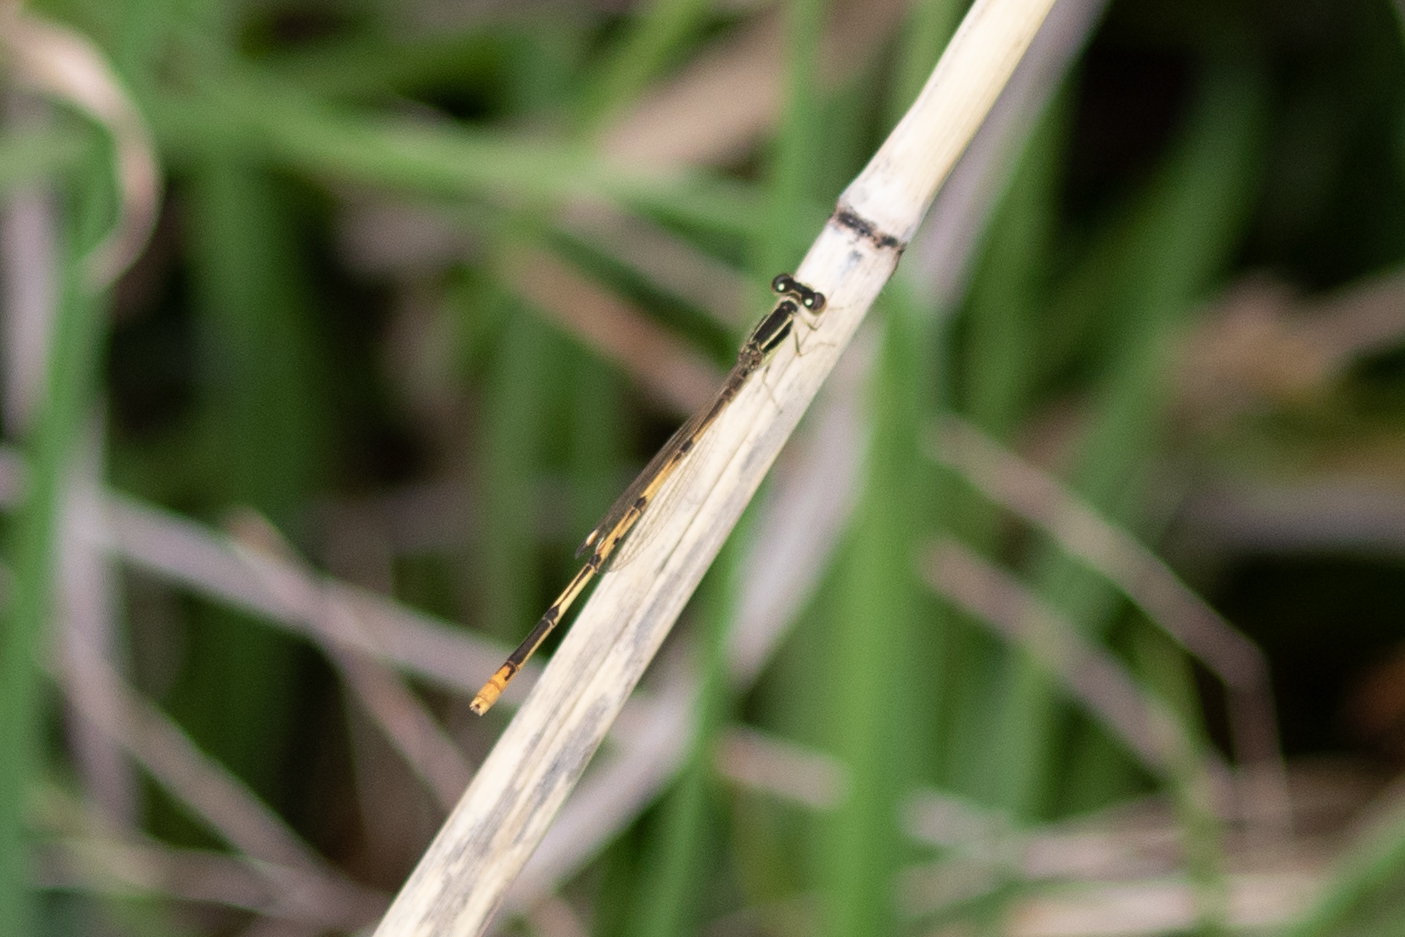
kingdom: Animalia
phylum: Arthropoda
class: Insecta
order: Odonata
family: Coenagrionidae
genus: Ischnura
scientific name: Ischnura hastata
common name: Citrine forktail
